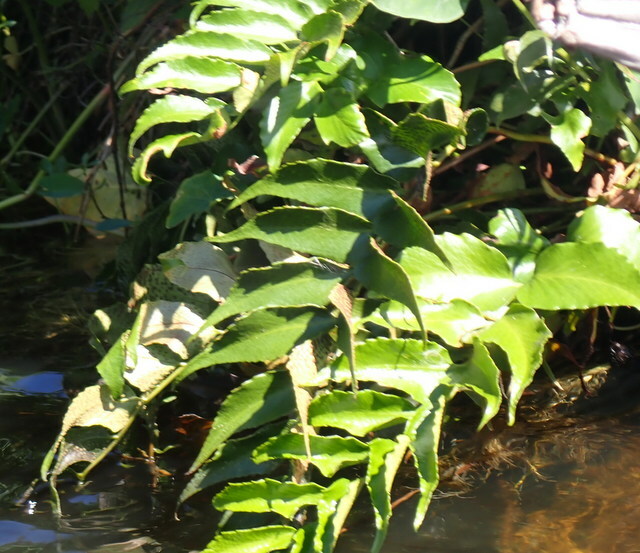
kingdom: Plantae
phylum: Tracheophyta
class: Polypodiopsida
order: Polypodiales
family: Dryopteridaceae
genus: Cyrtomium
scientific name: Cyrtomium falcatum
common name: House holly-fern
